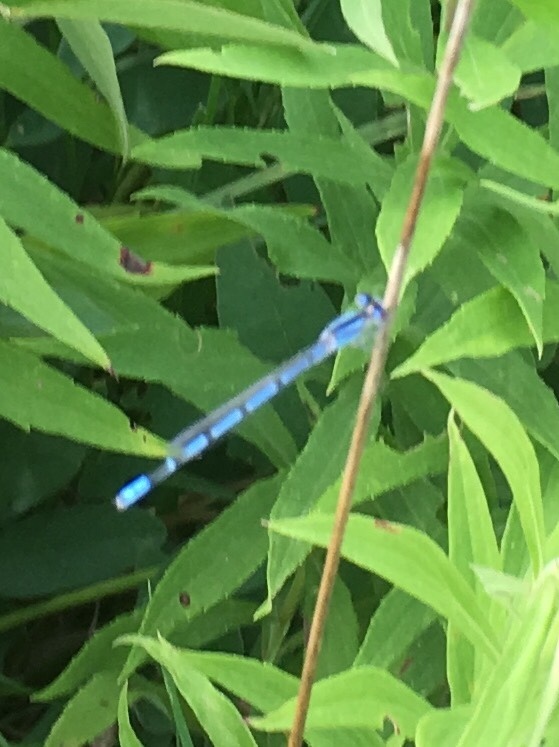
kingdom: Animalia
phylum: Arthropoda
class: Insecta
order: Odonata
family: Coenagrionidae
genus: Enallagma
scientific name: Enallagma civile
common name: Damselfly
